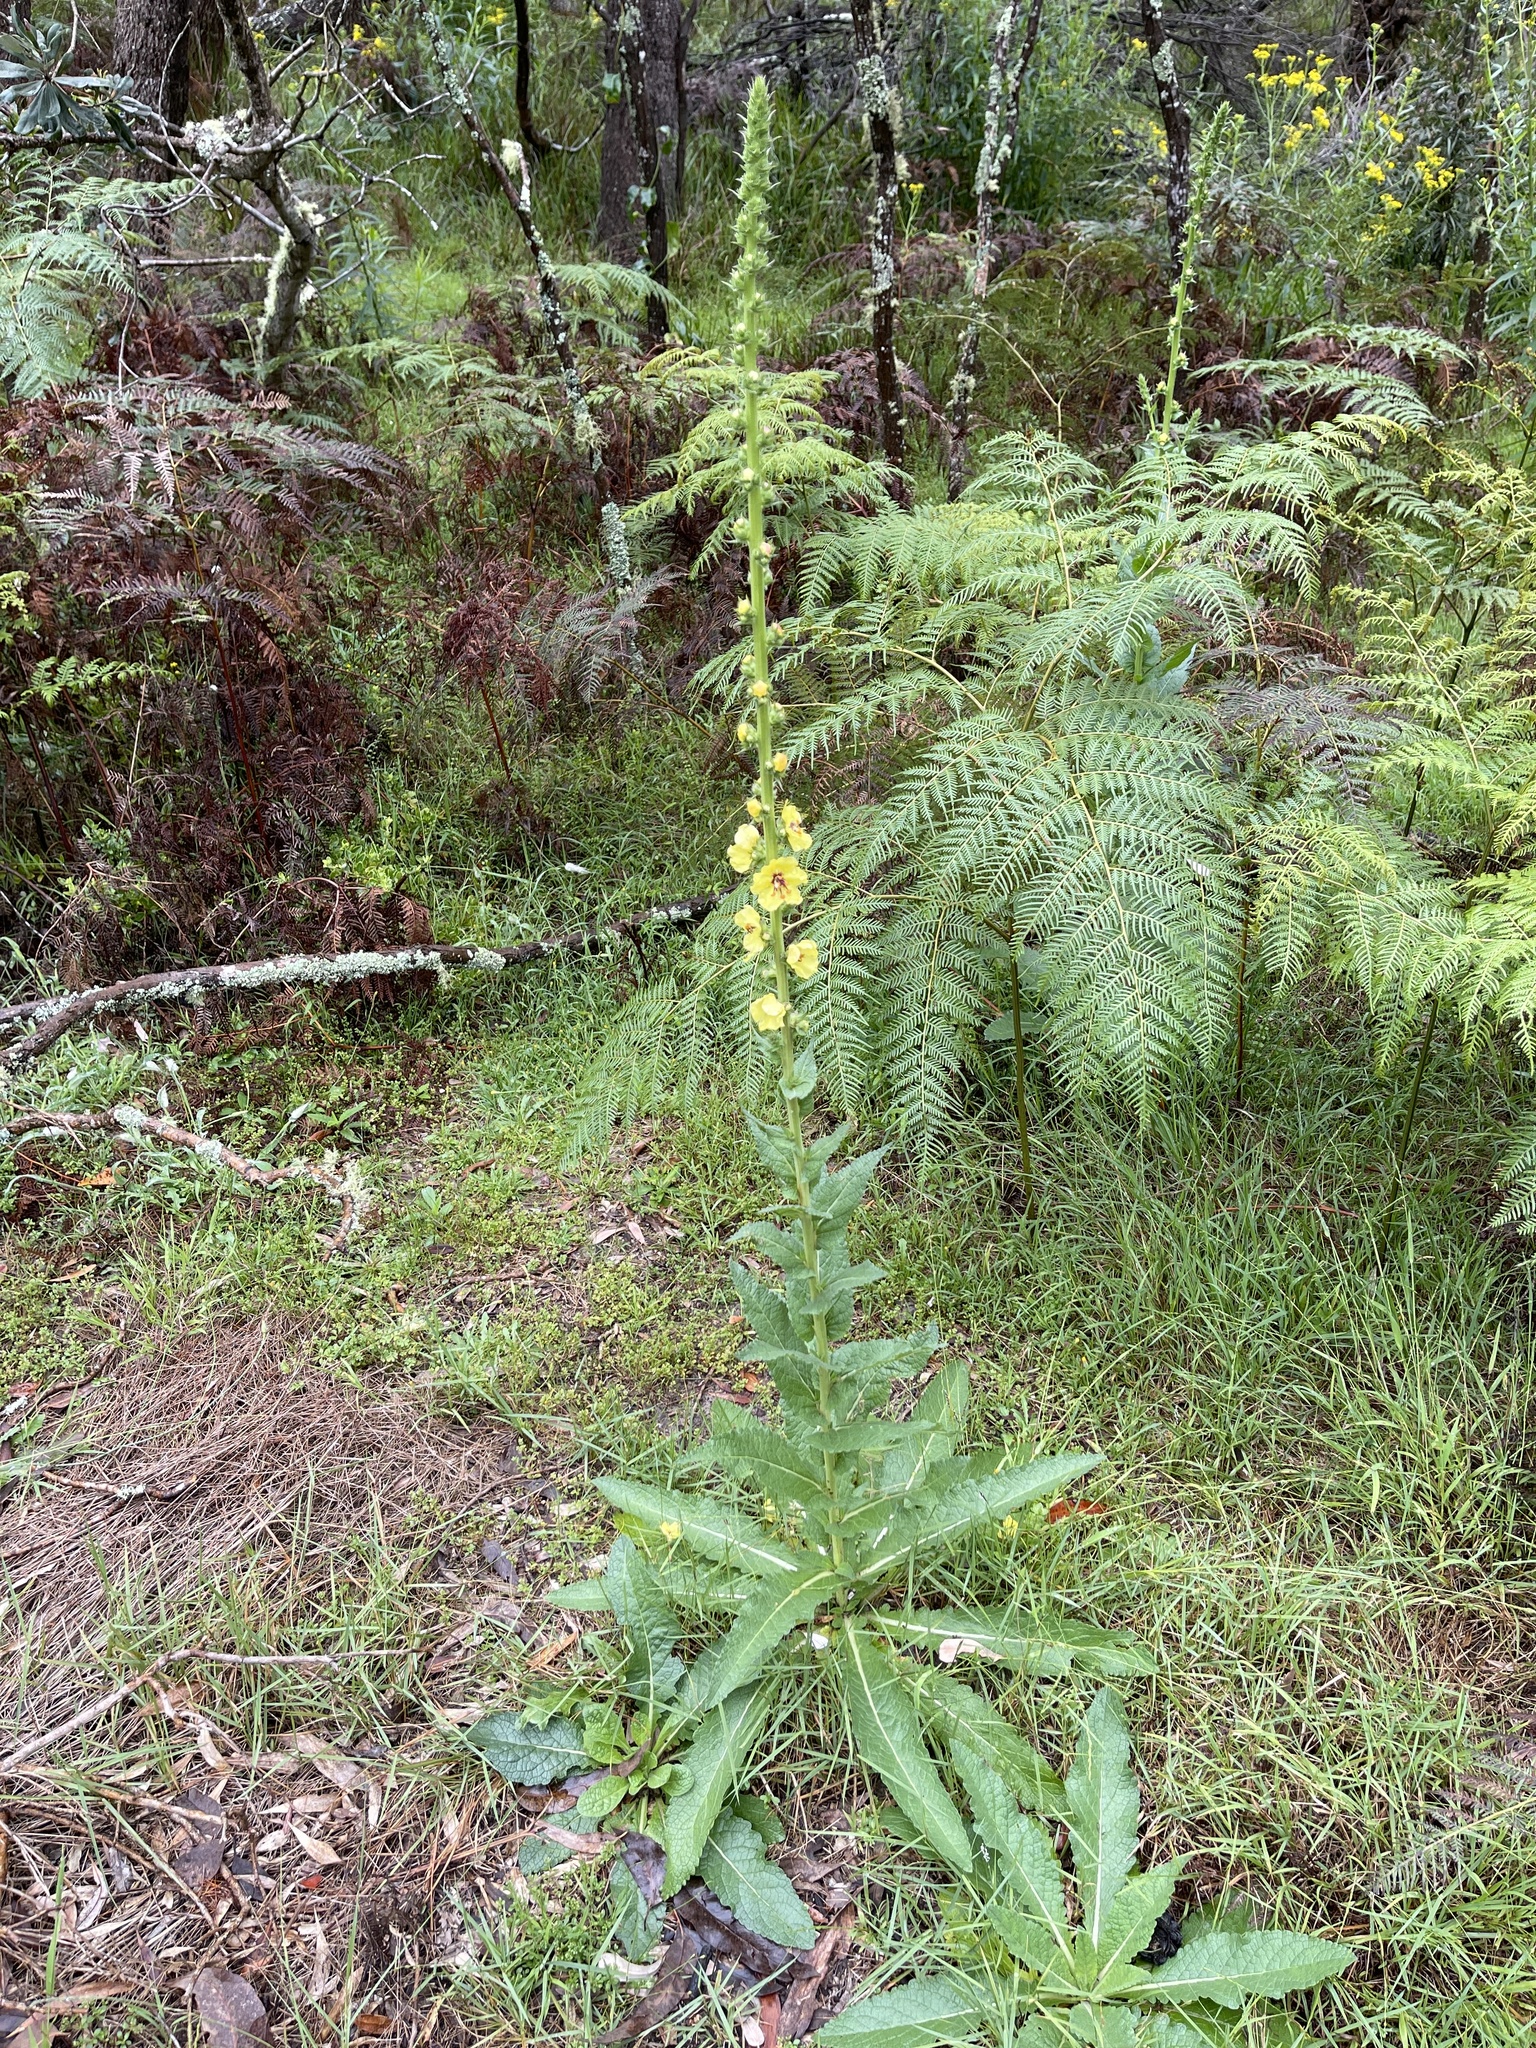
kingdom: Plantae
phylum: Tracheophyta
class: Magnoliopsida
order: Lamiales
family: Scrophulariaceae
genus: Verbascum
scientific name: Verbascum virgatum
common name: Twiggy mullein
